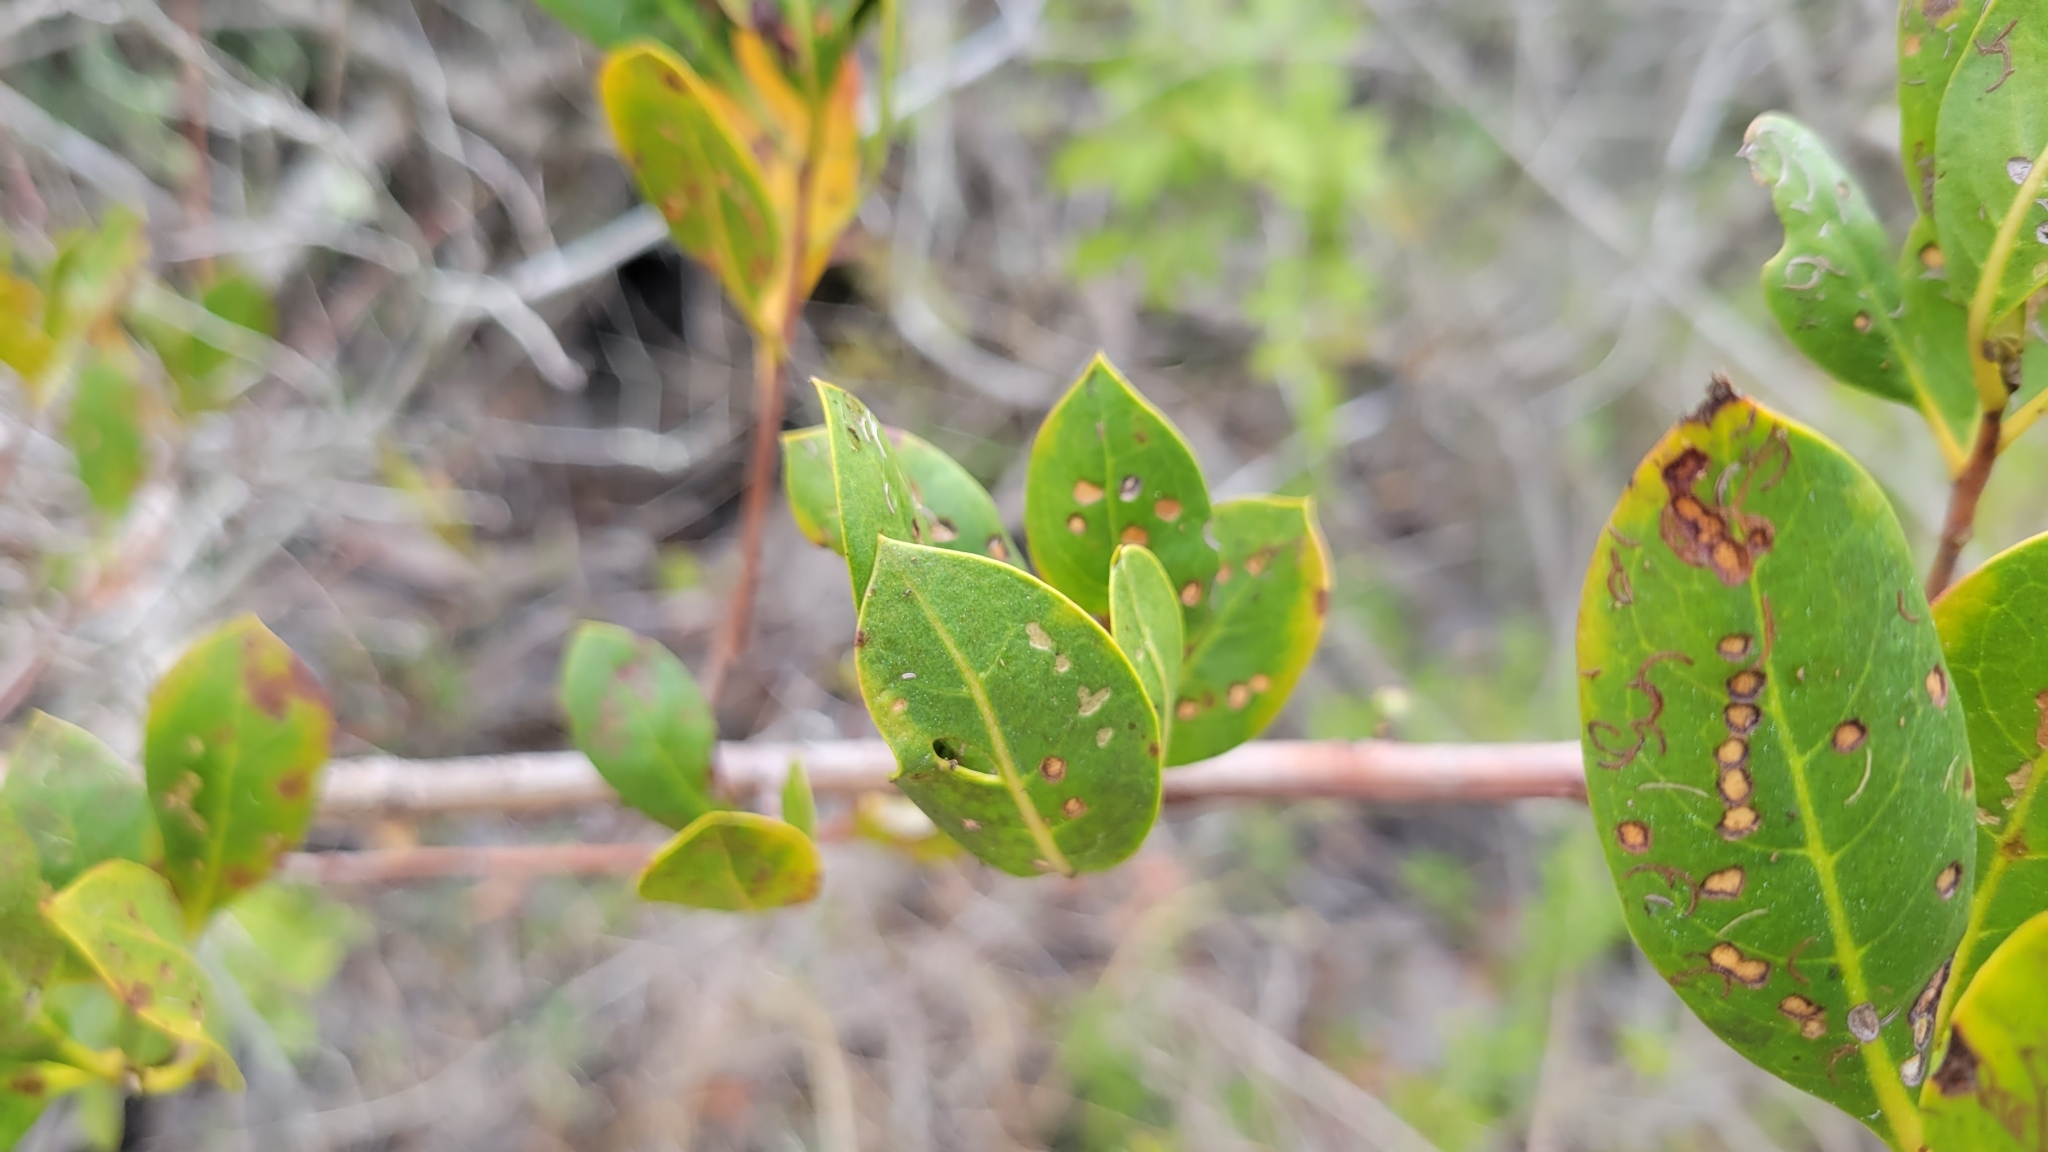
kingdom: Plantae
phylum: Tracheophyta
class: Magnoliopsida
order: Myrtales
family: Combretaceae
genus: Conocarpus
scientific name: Conocarpus erectus
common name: Button mangrove
